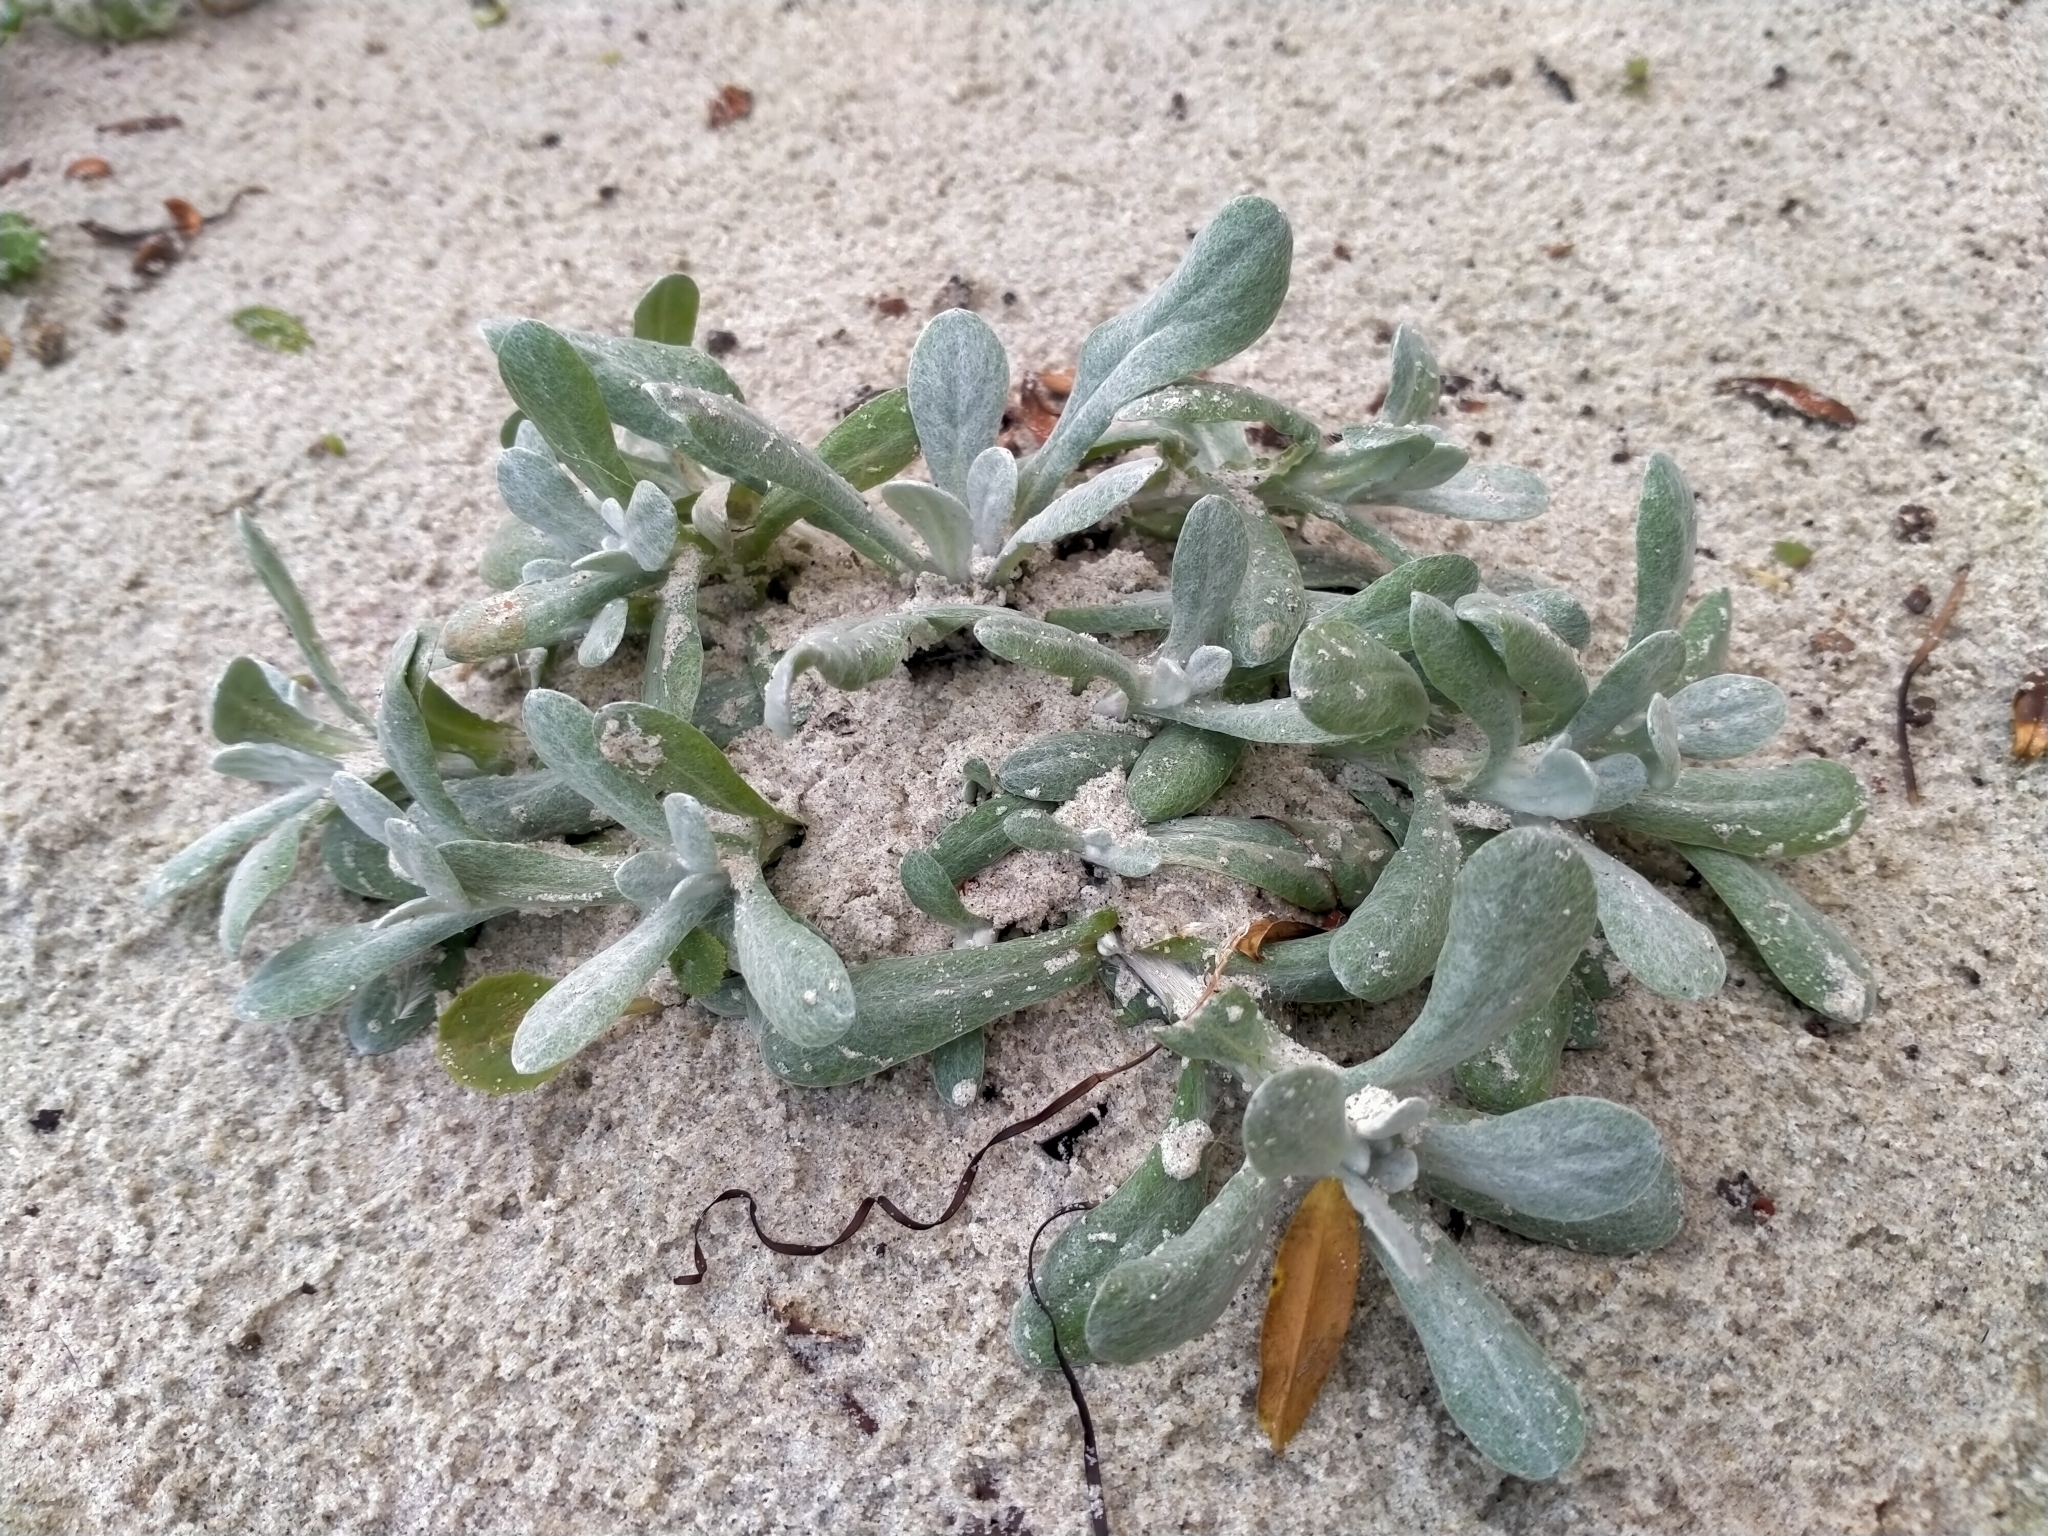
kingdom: Plantae
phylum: Tracheophyta
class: Magnoliopsida
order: Asterales
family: Asteraceae
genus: Helichrysum
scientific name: Helichrysum luteoalbum
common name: Daisy
